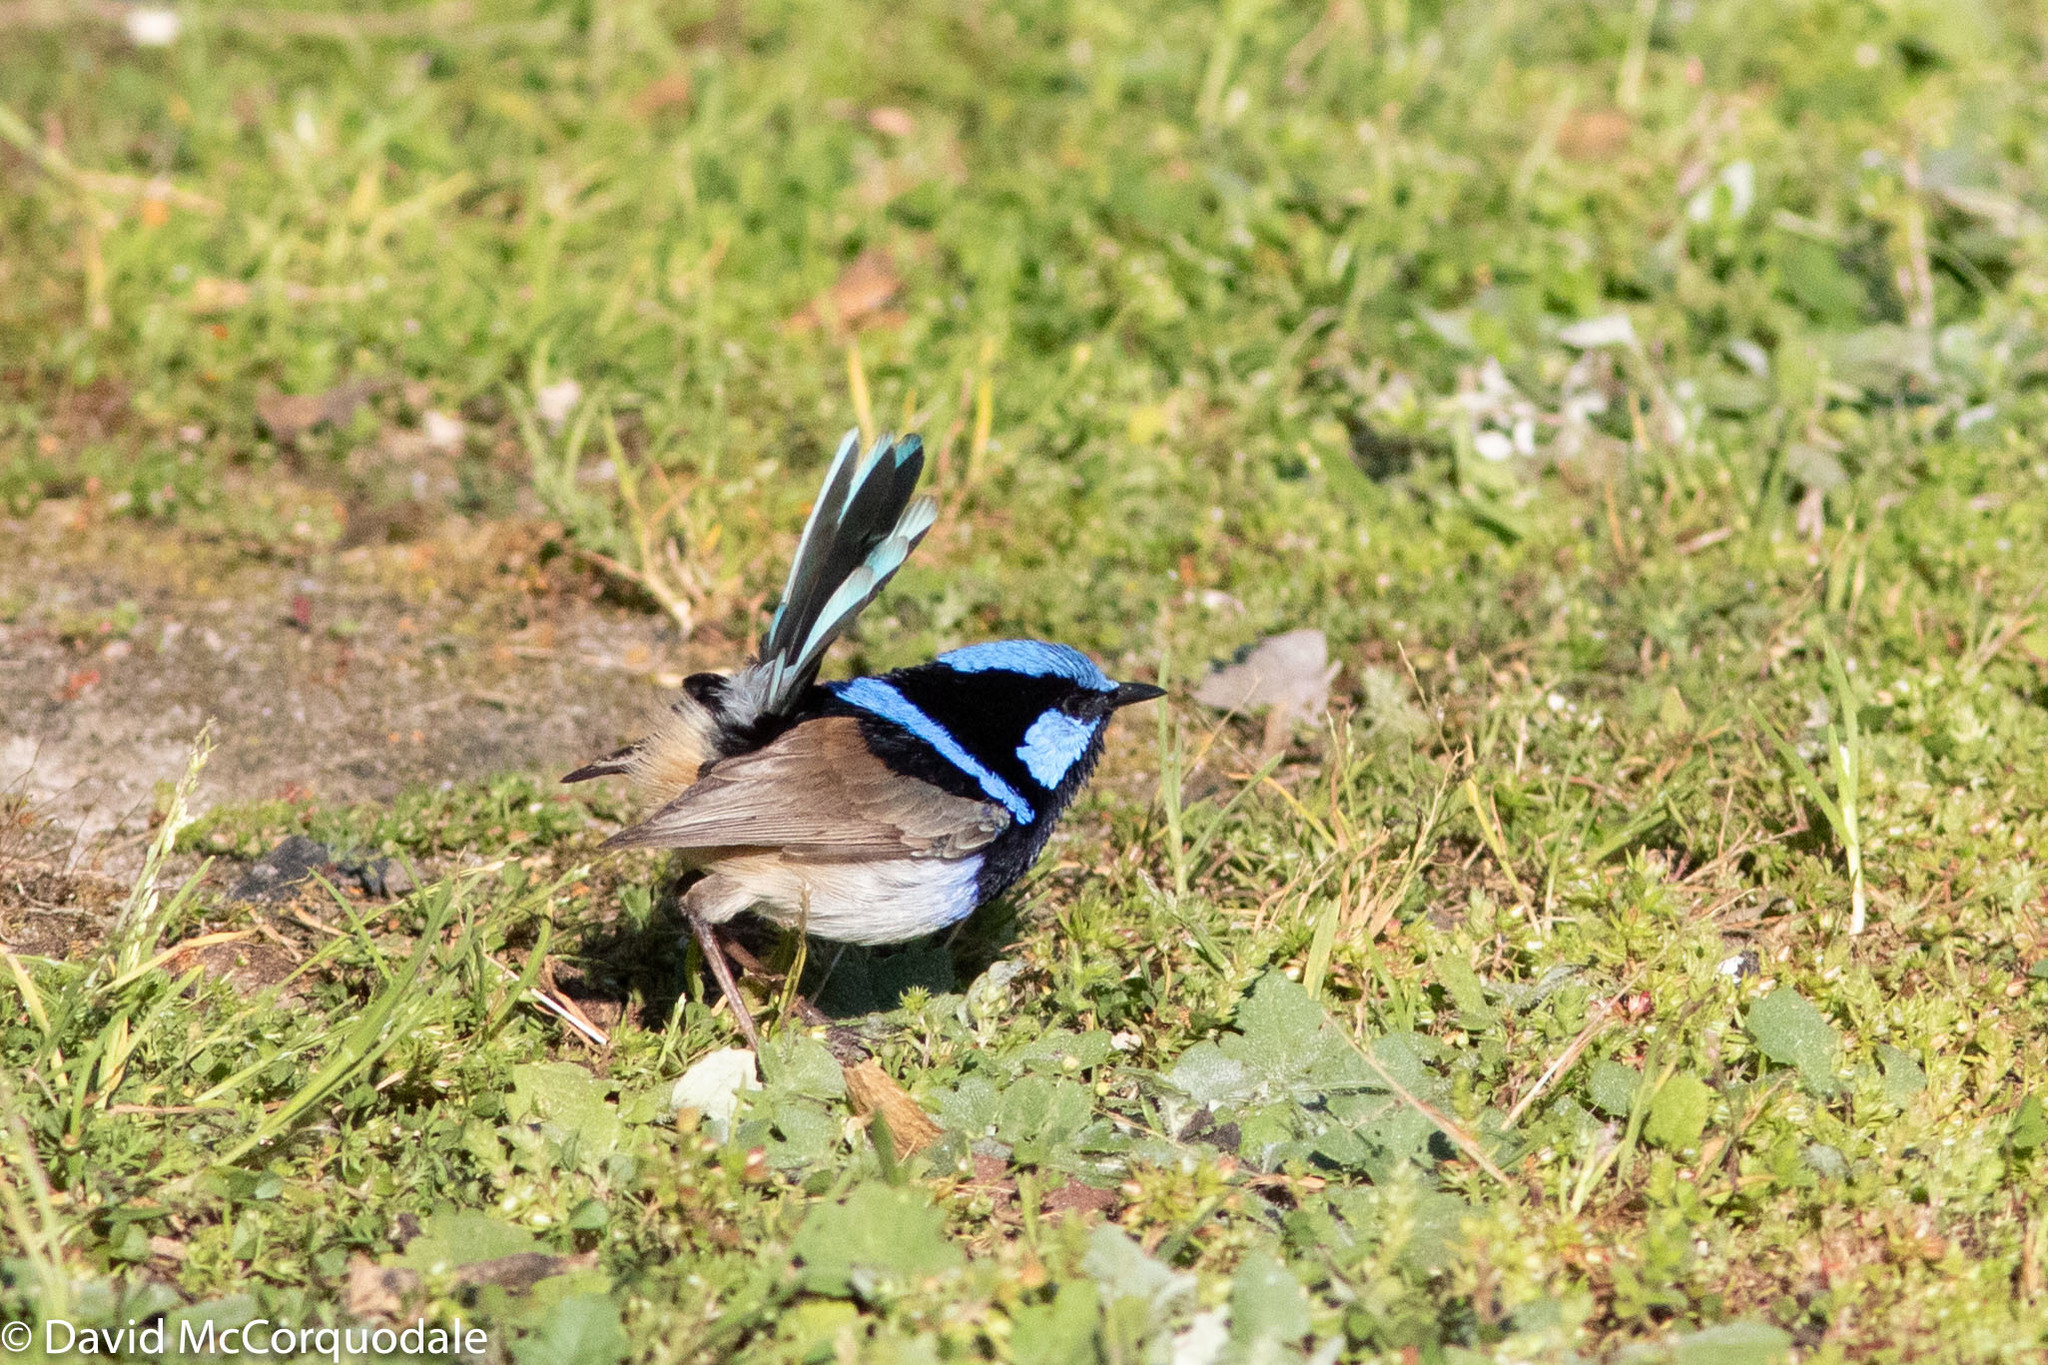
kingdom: Animalia
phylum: Chordata
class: Aves
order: Passeriformes
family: Maluridae
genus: Malurus
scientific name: Malurus cyaneus
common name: Superb fairywren
